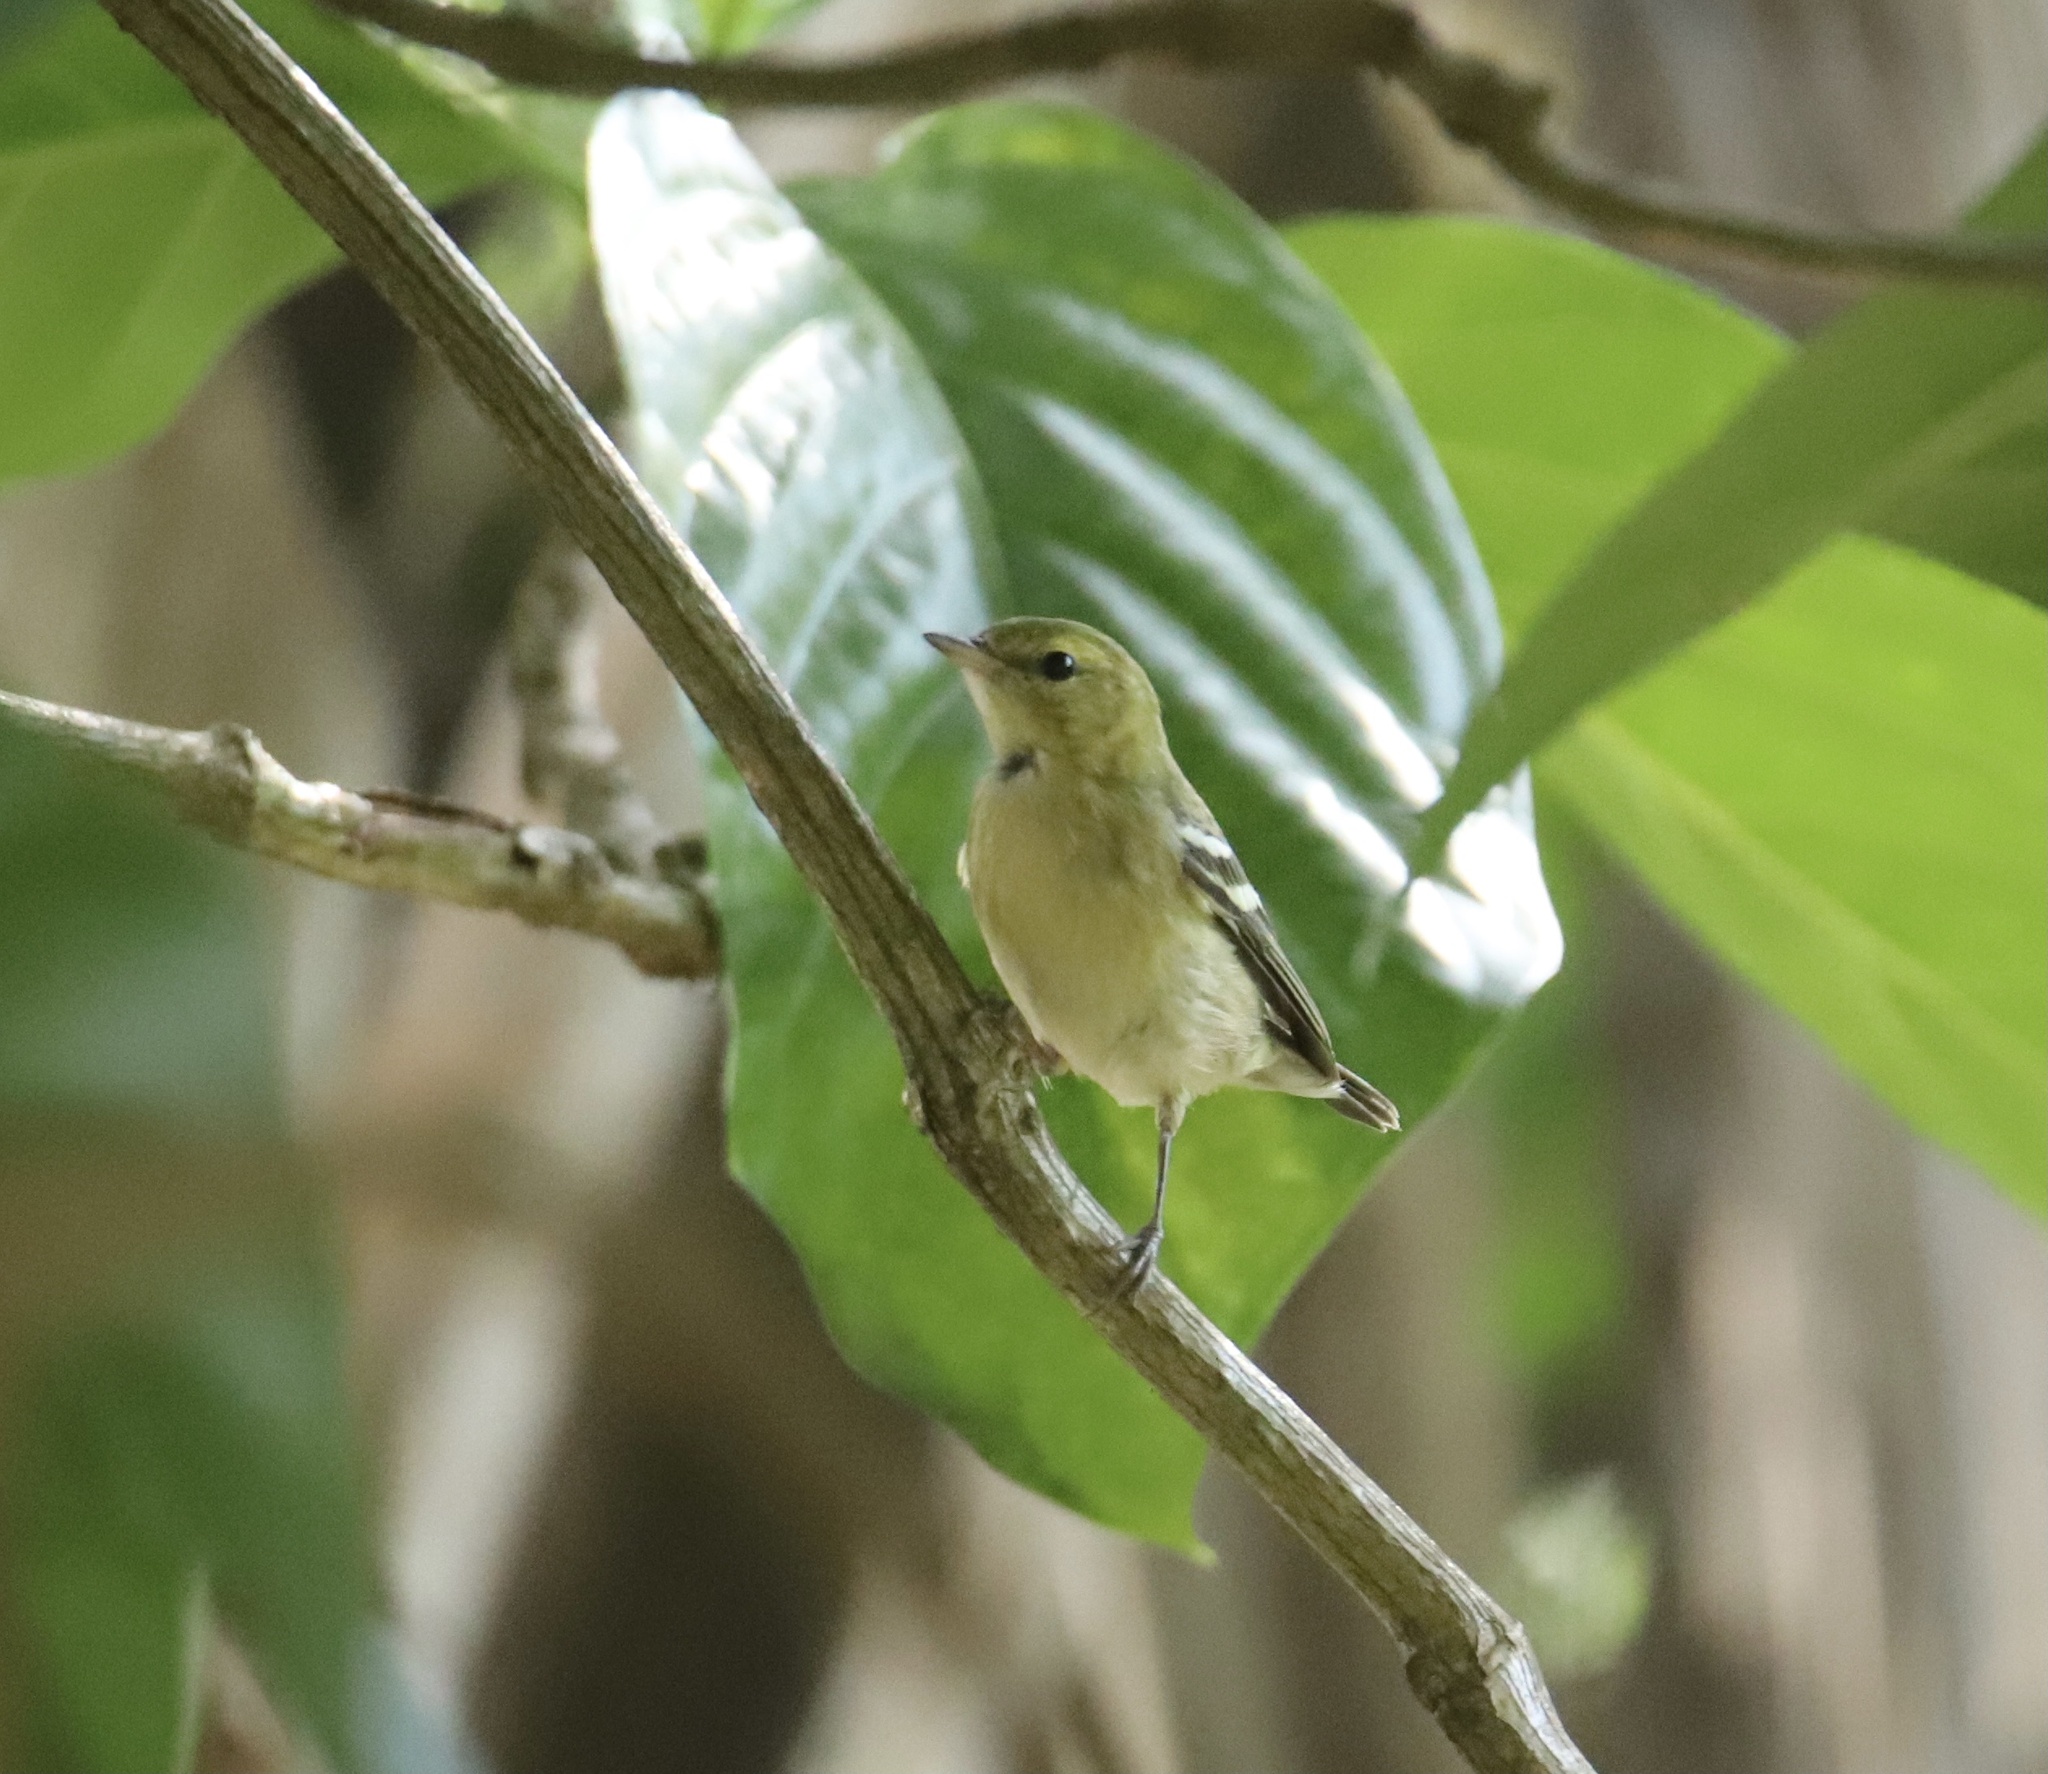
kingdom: Animalia
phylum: Chordata
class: Aves
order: Passeriformes
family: Parulidae
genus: Setophaga
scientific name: Setophaga castanea
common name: Bay-breasted warbler
